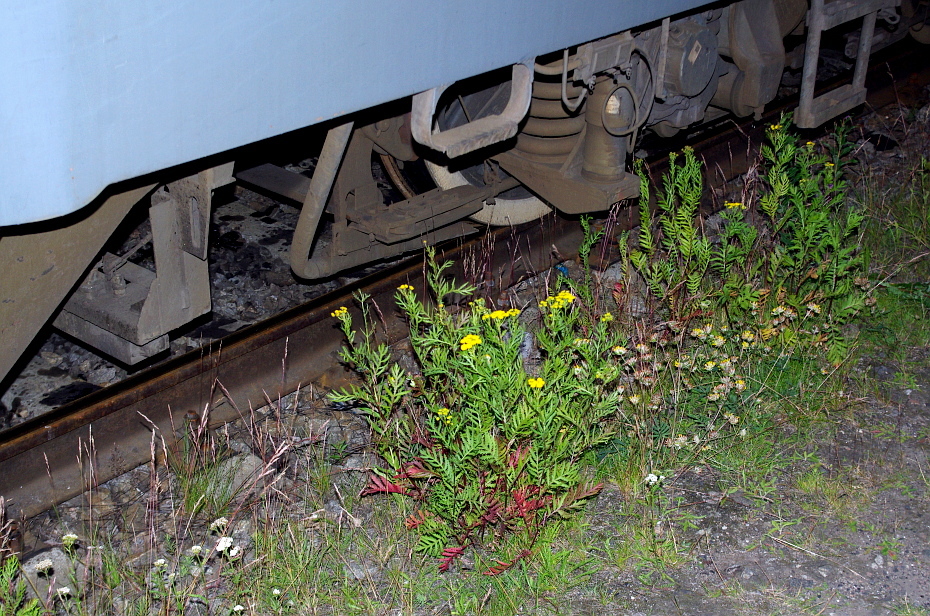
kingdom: Plantae
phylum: Tracheophyta
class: Magnoliopsida
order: Asterales
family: Asteraceae
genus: Tanacetum
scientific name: Tanacetum vulgare
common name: Common tansy
